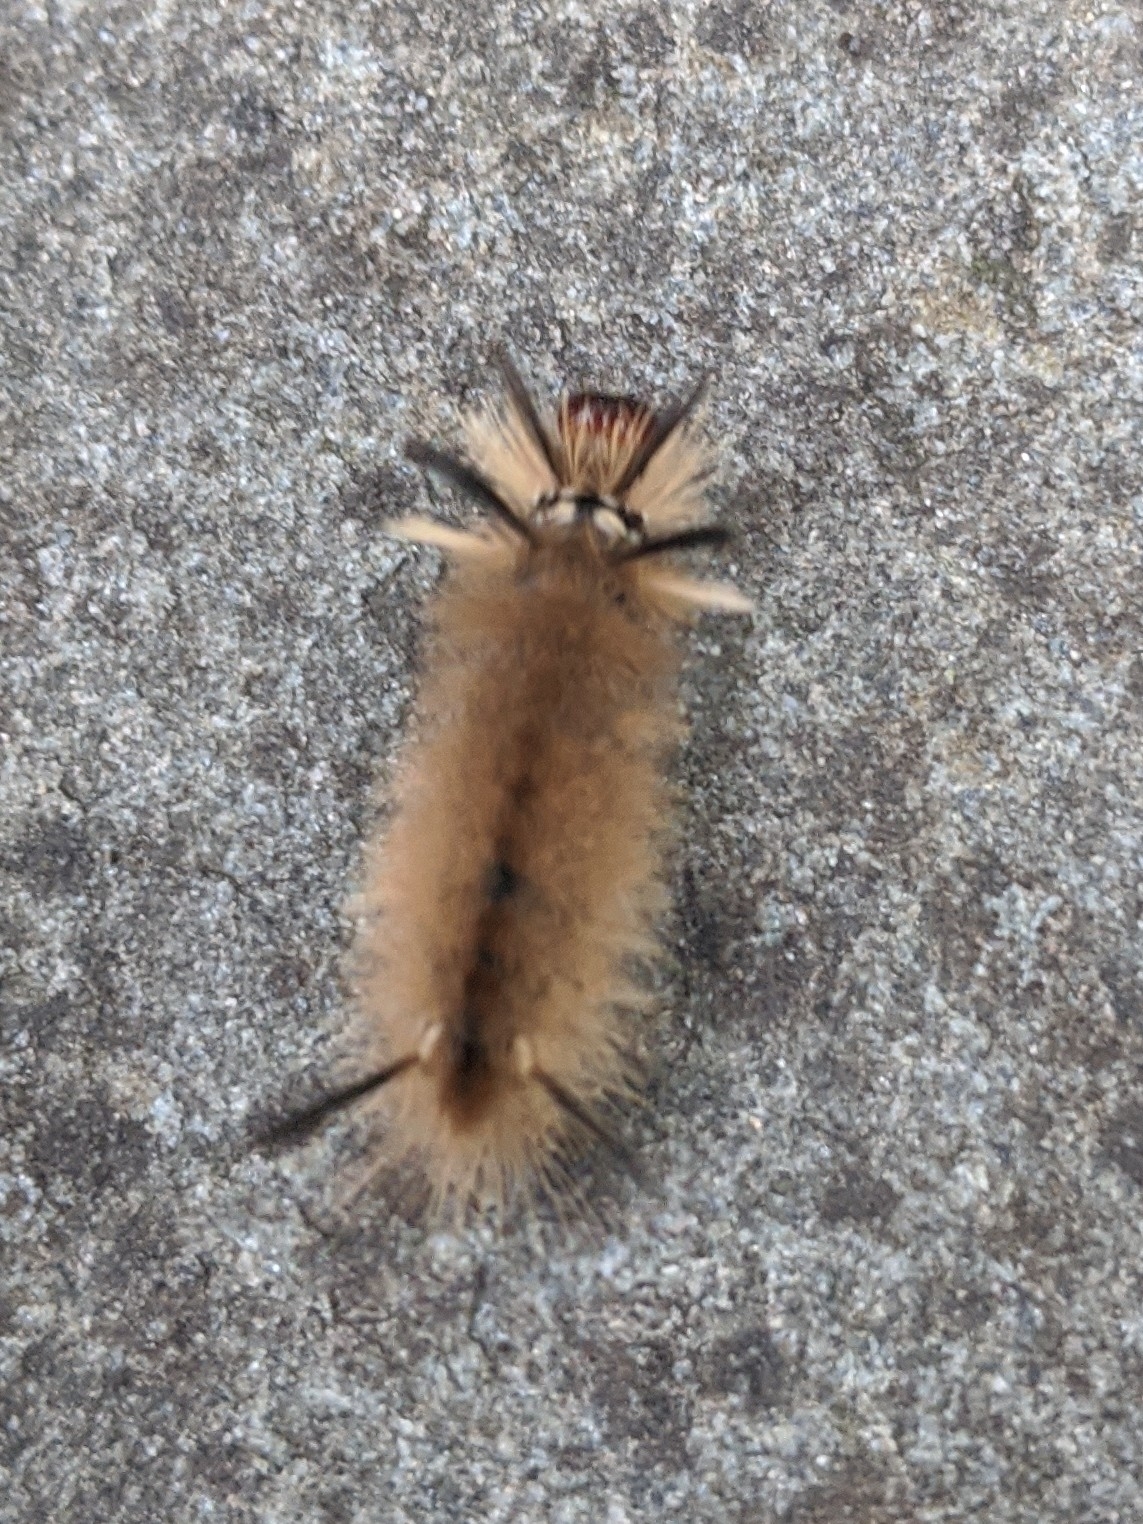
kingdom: Animalia
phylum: Arthropoda
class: Insecta
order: Lepidoptera
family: Erebidae
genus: Halysidota
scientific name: Halysidota tessellaris
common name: Banded tussock moth
